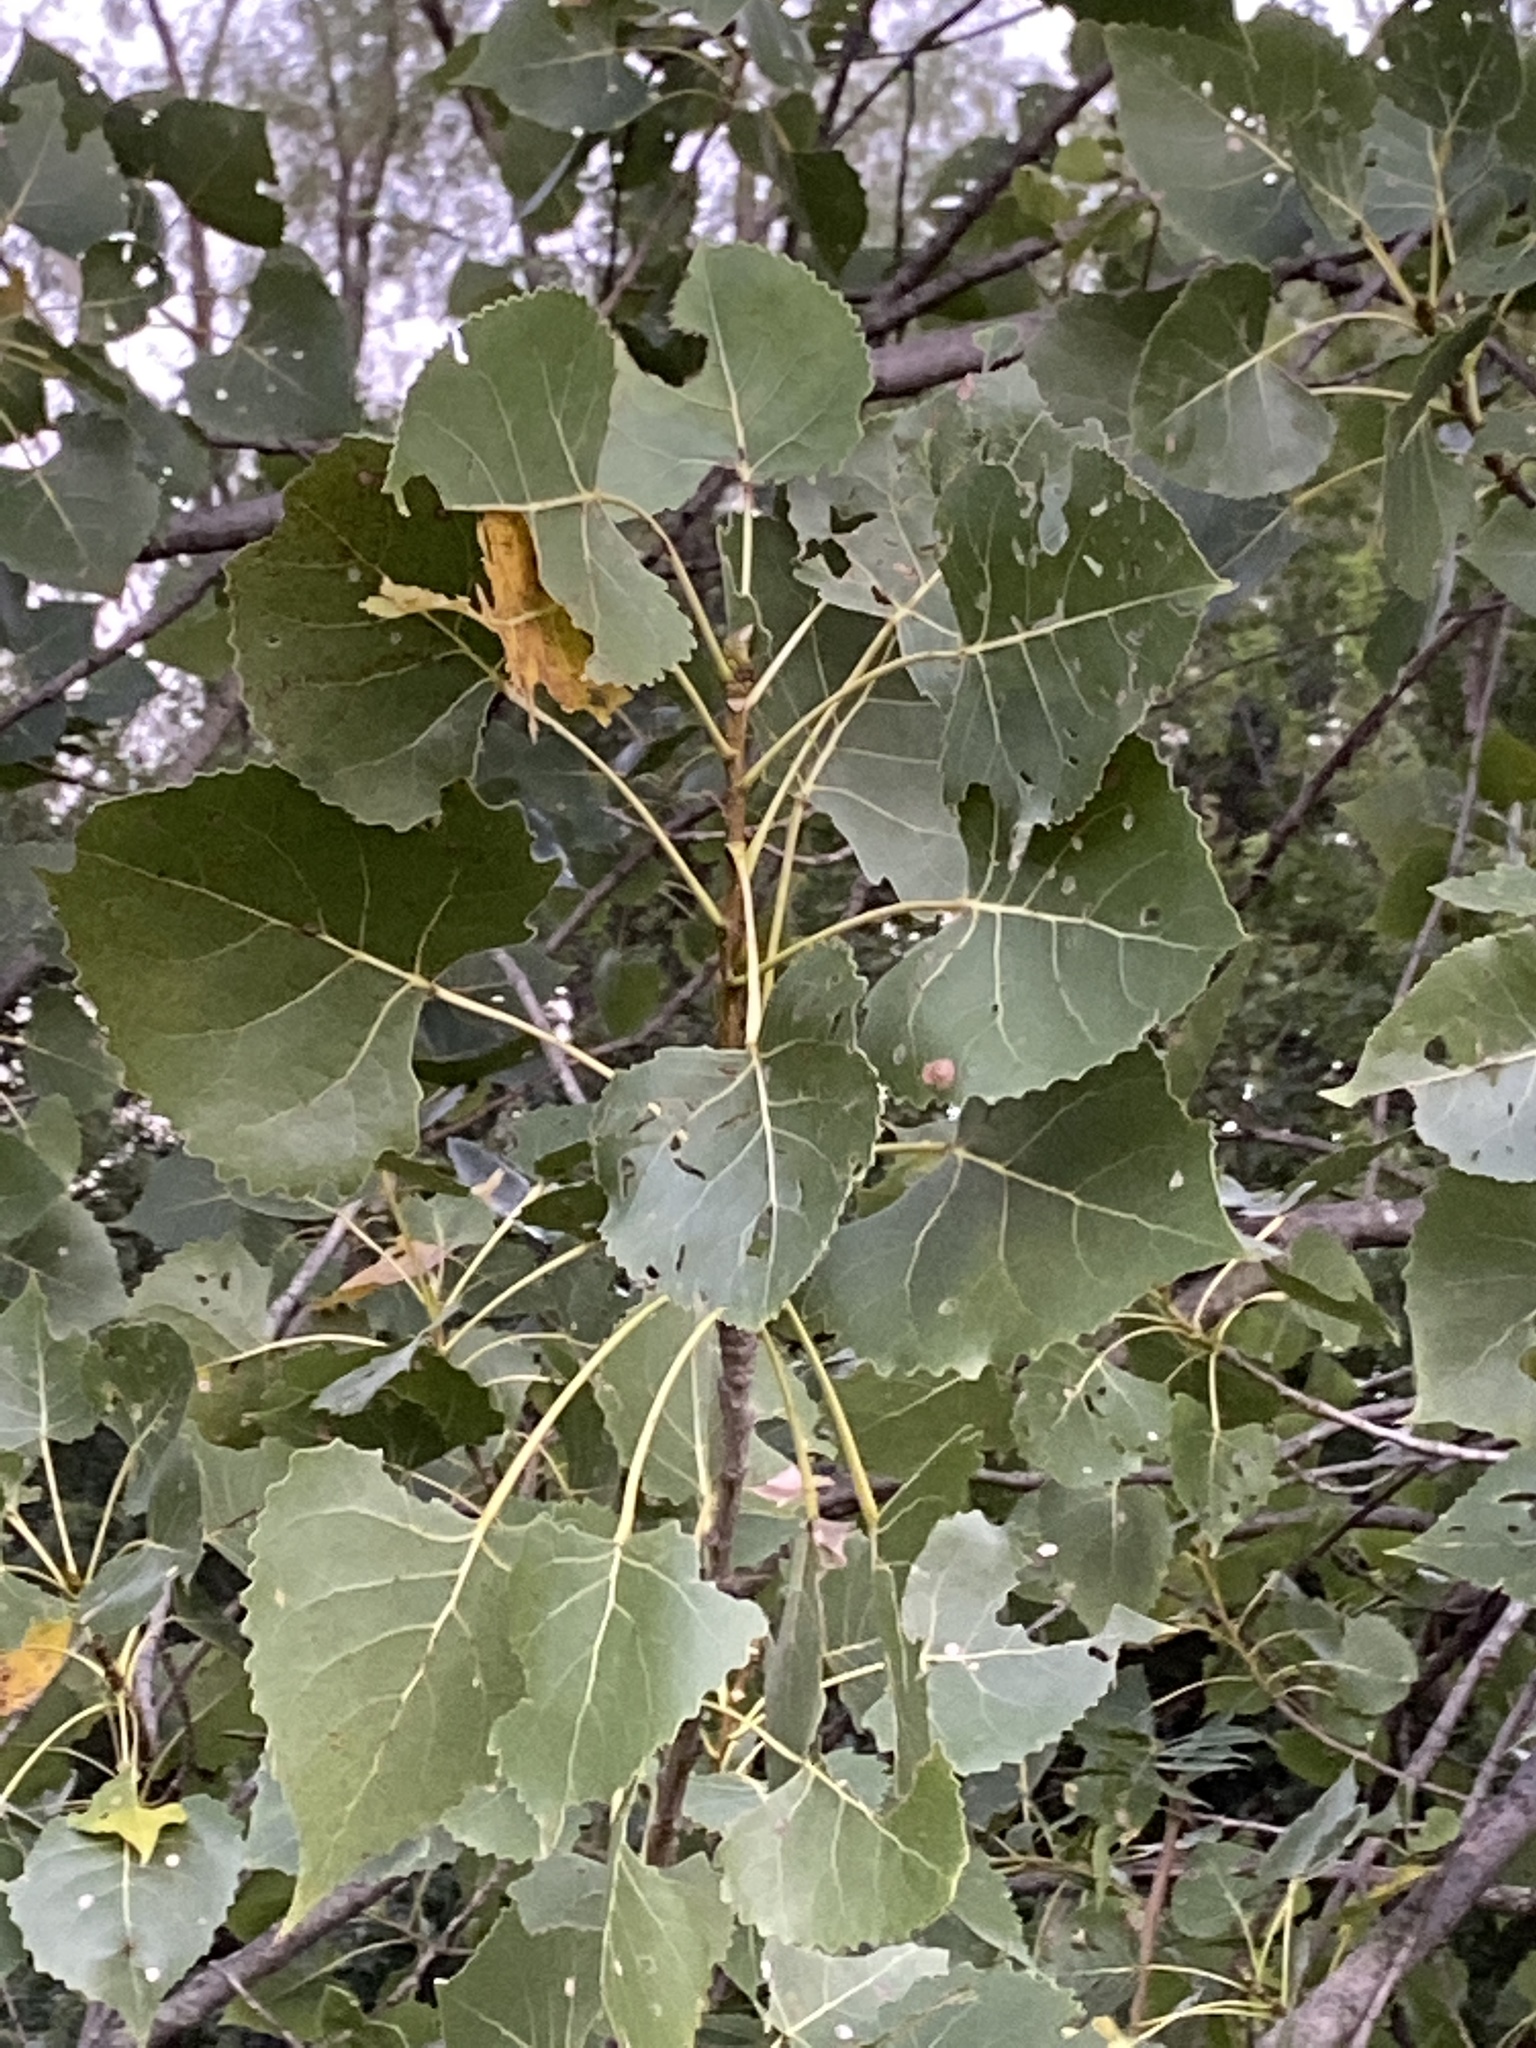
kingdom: Plantae
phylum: Tracheophyta
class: Magnoliopsida
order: Malpighiales
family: Salicaceae
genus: Populus
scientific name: Populus deltoides
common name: Eastern cottonwood
